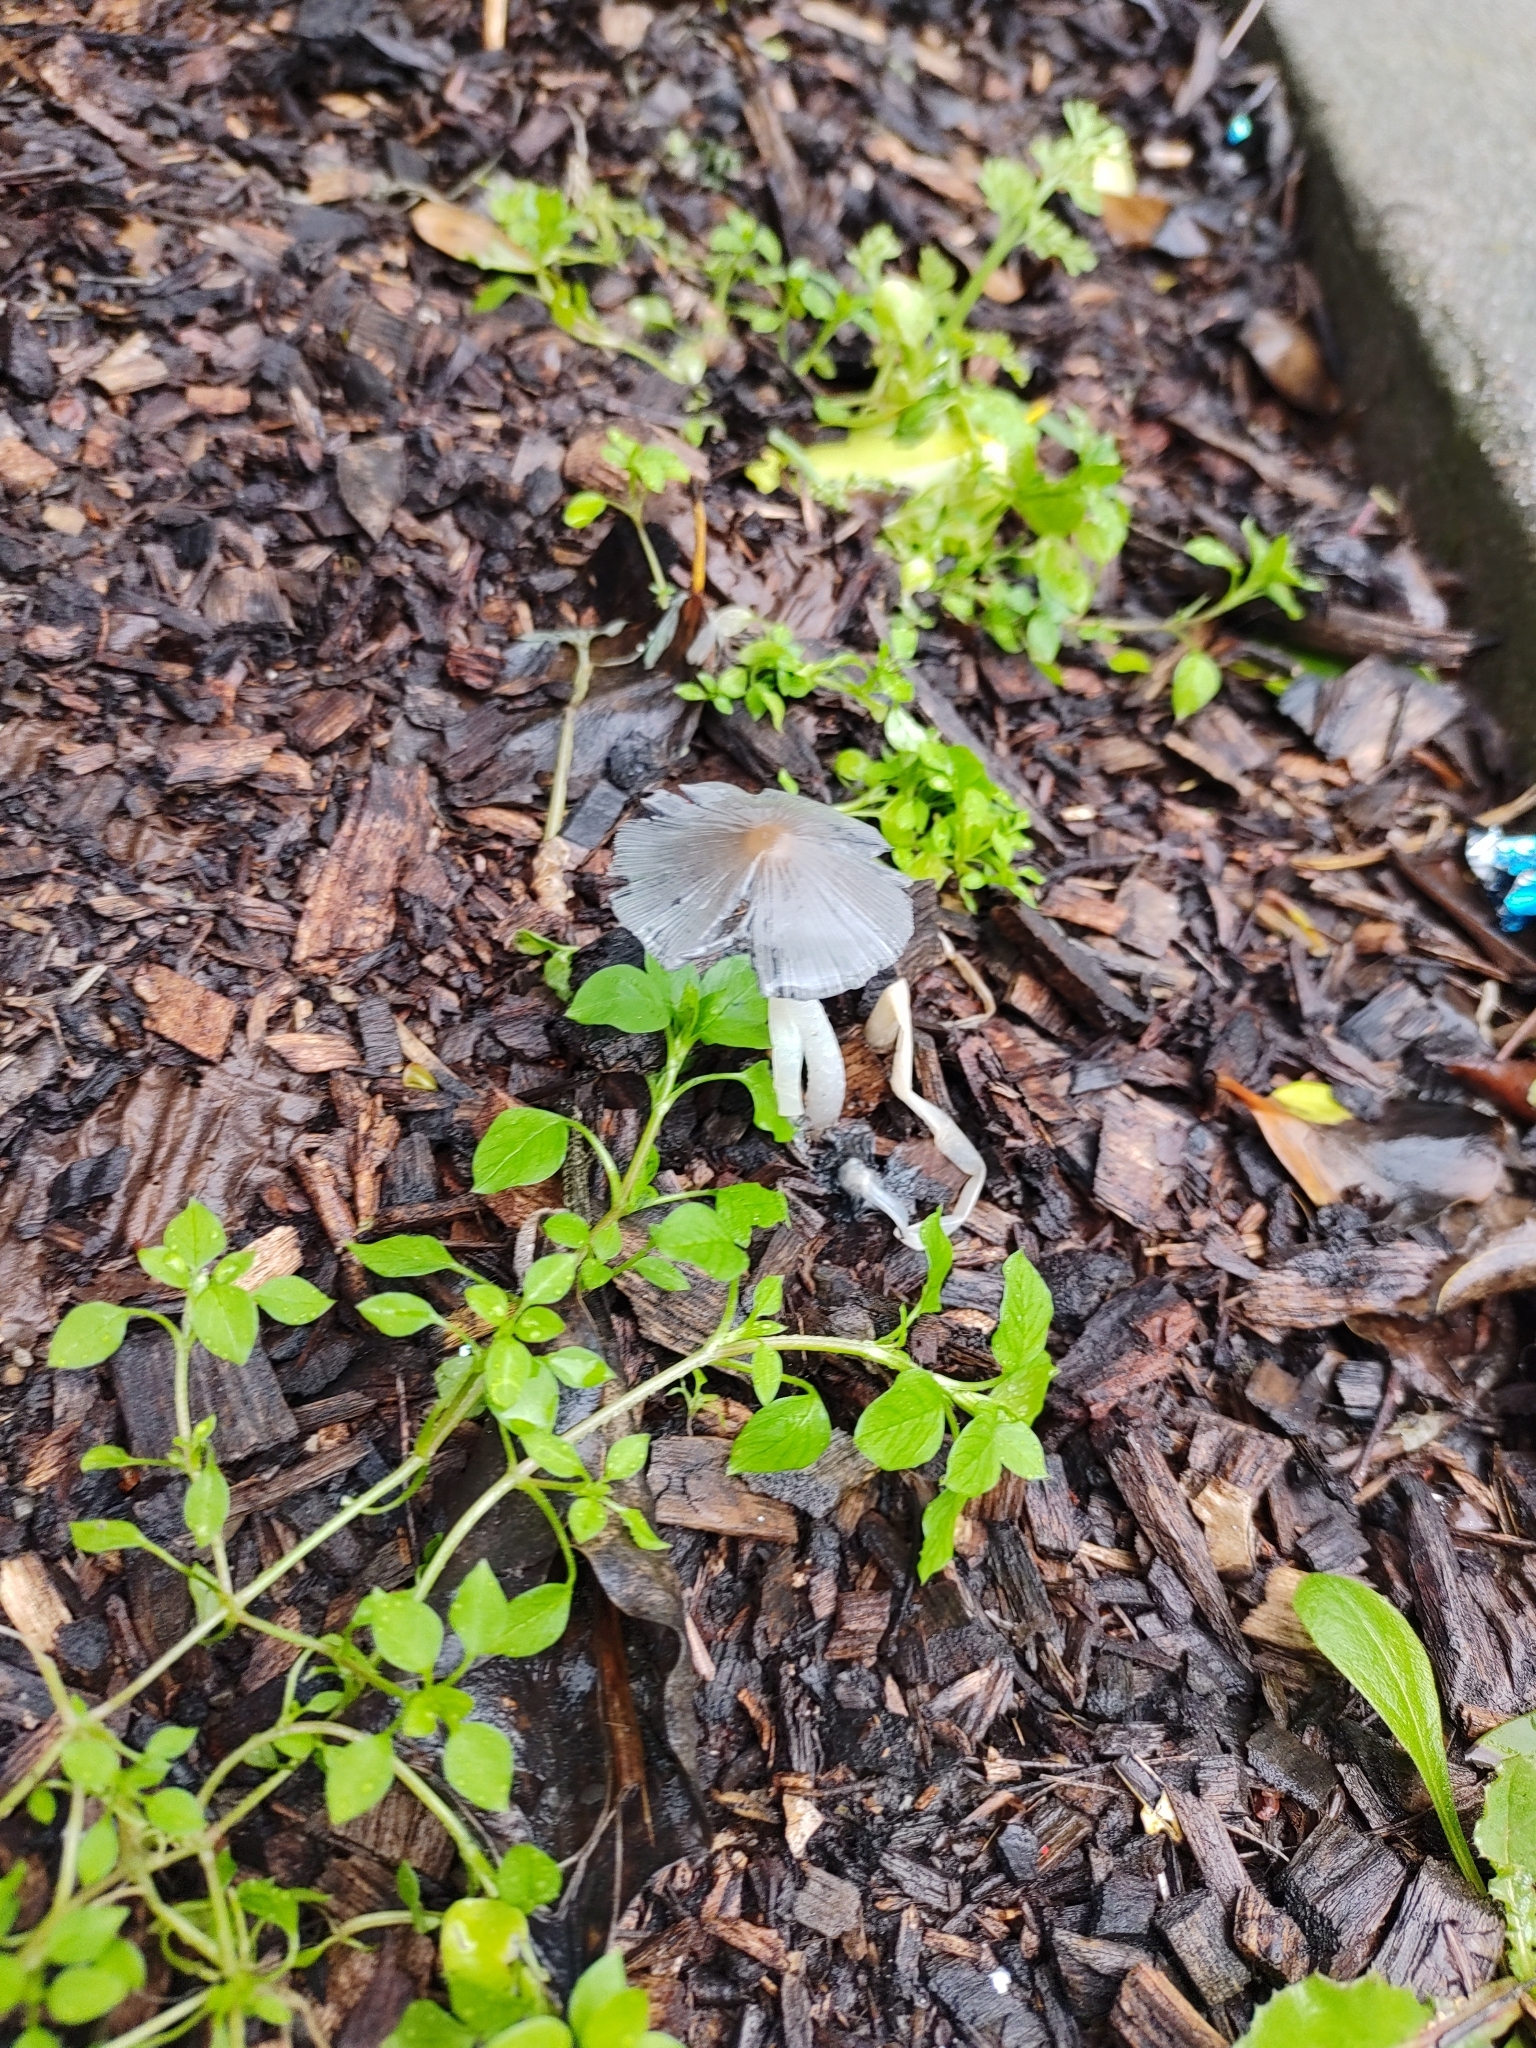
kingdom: Fungi
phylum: Basidiomycota
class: Agaricomycetes
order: Agaricales
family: Psathyrellaceae
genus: Coprinopsis
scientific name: Coprinopsis lagopus
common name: Hare'sfoot inkcap
